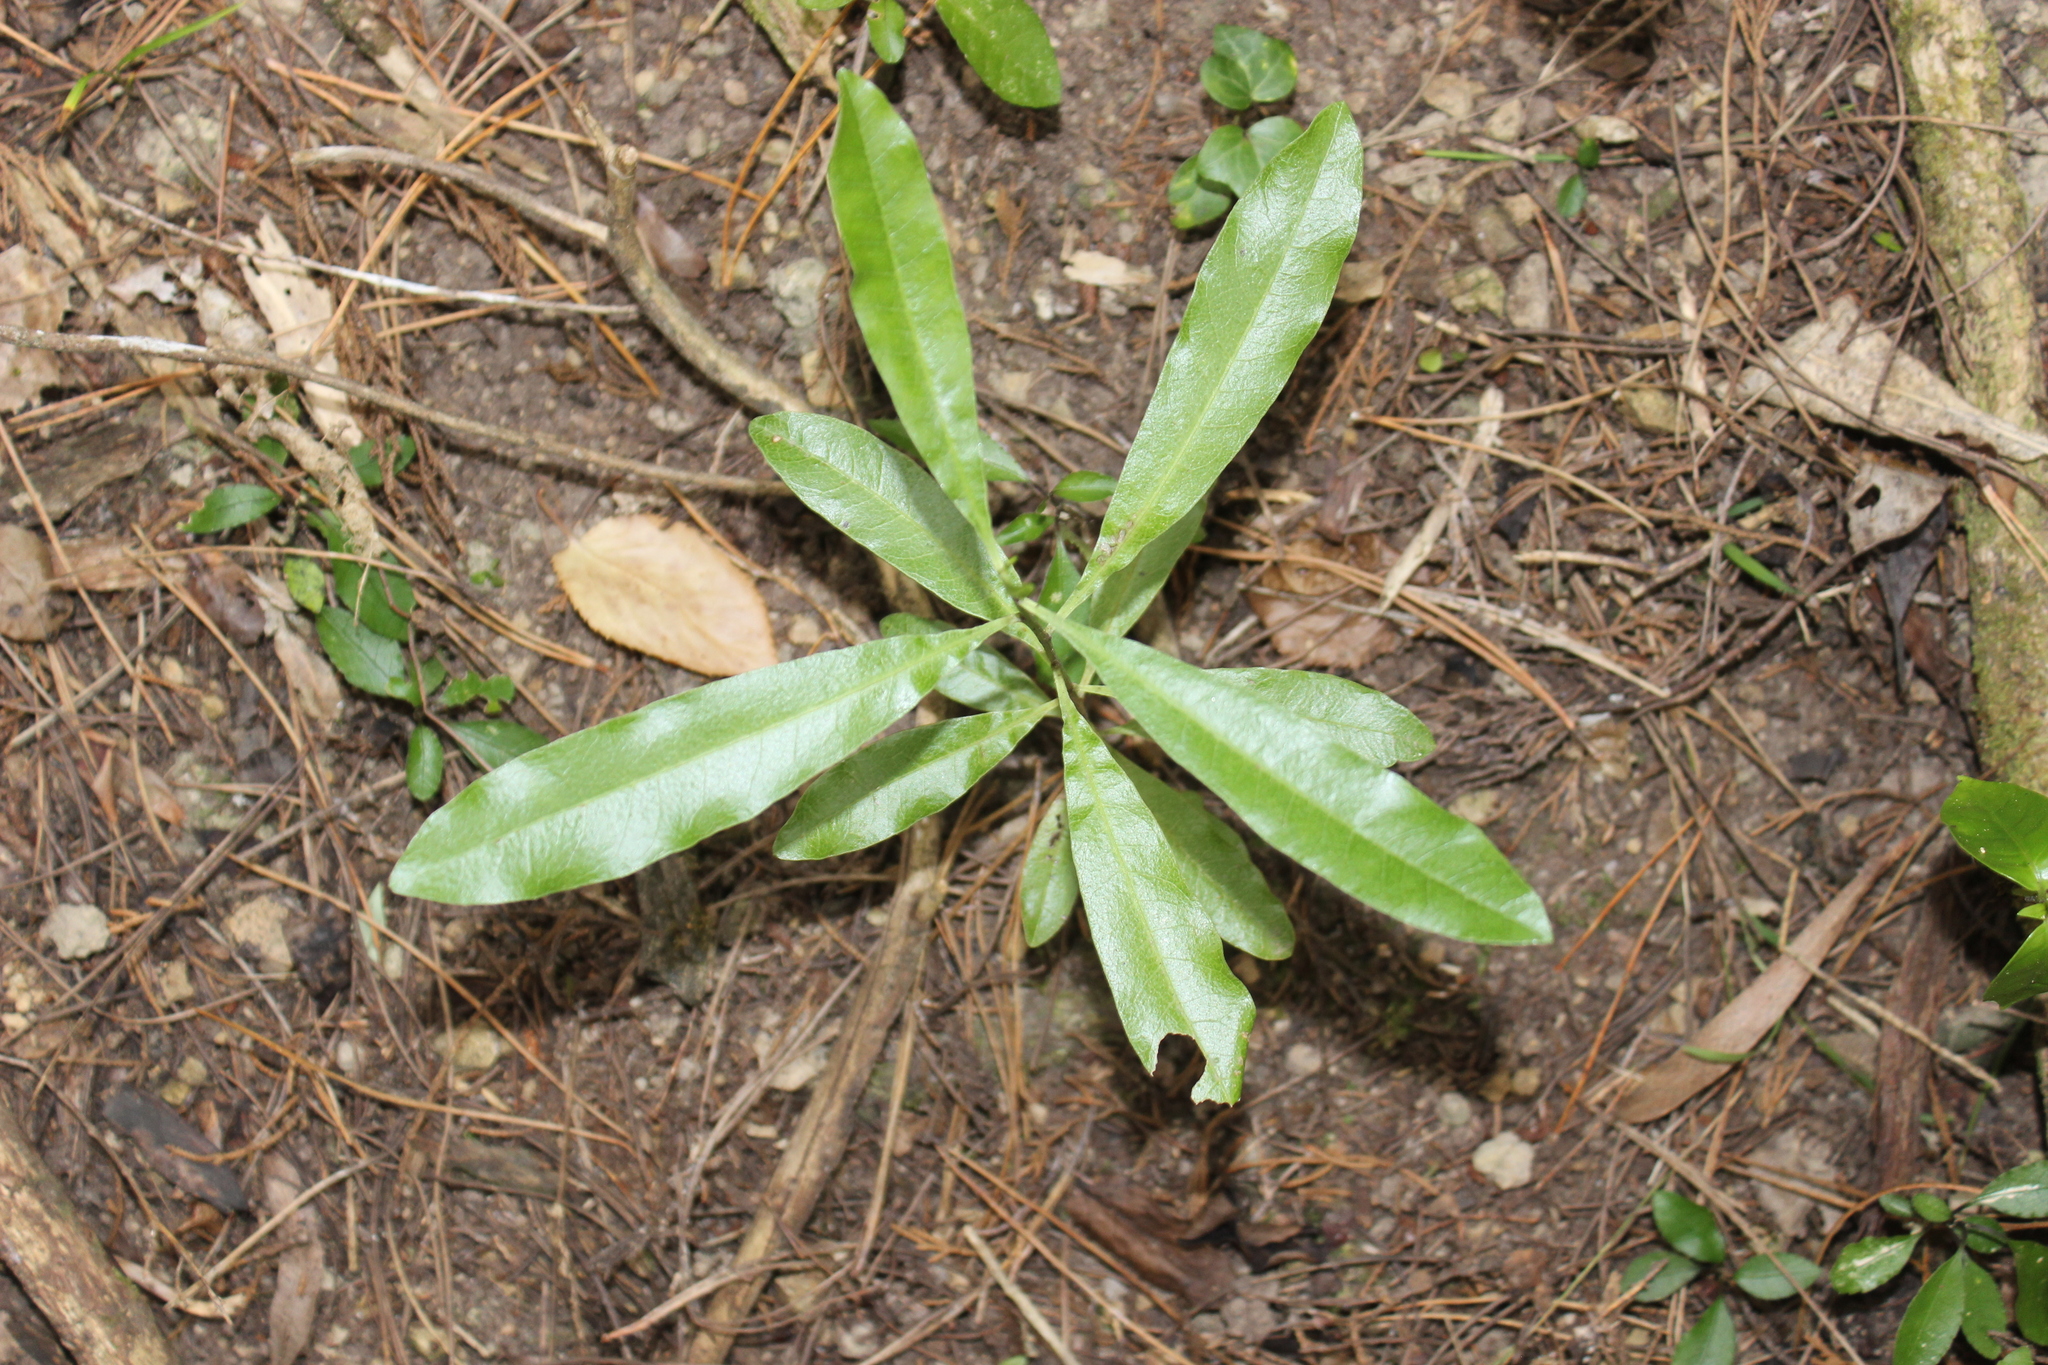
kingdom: Plantae
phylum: Tracheophyta
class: Magnoliopsida
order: Sapindales
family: Sapindaceae
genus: Dodonaea
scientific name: Dodonaea viscosa
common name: Hopbush
